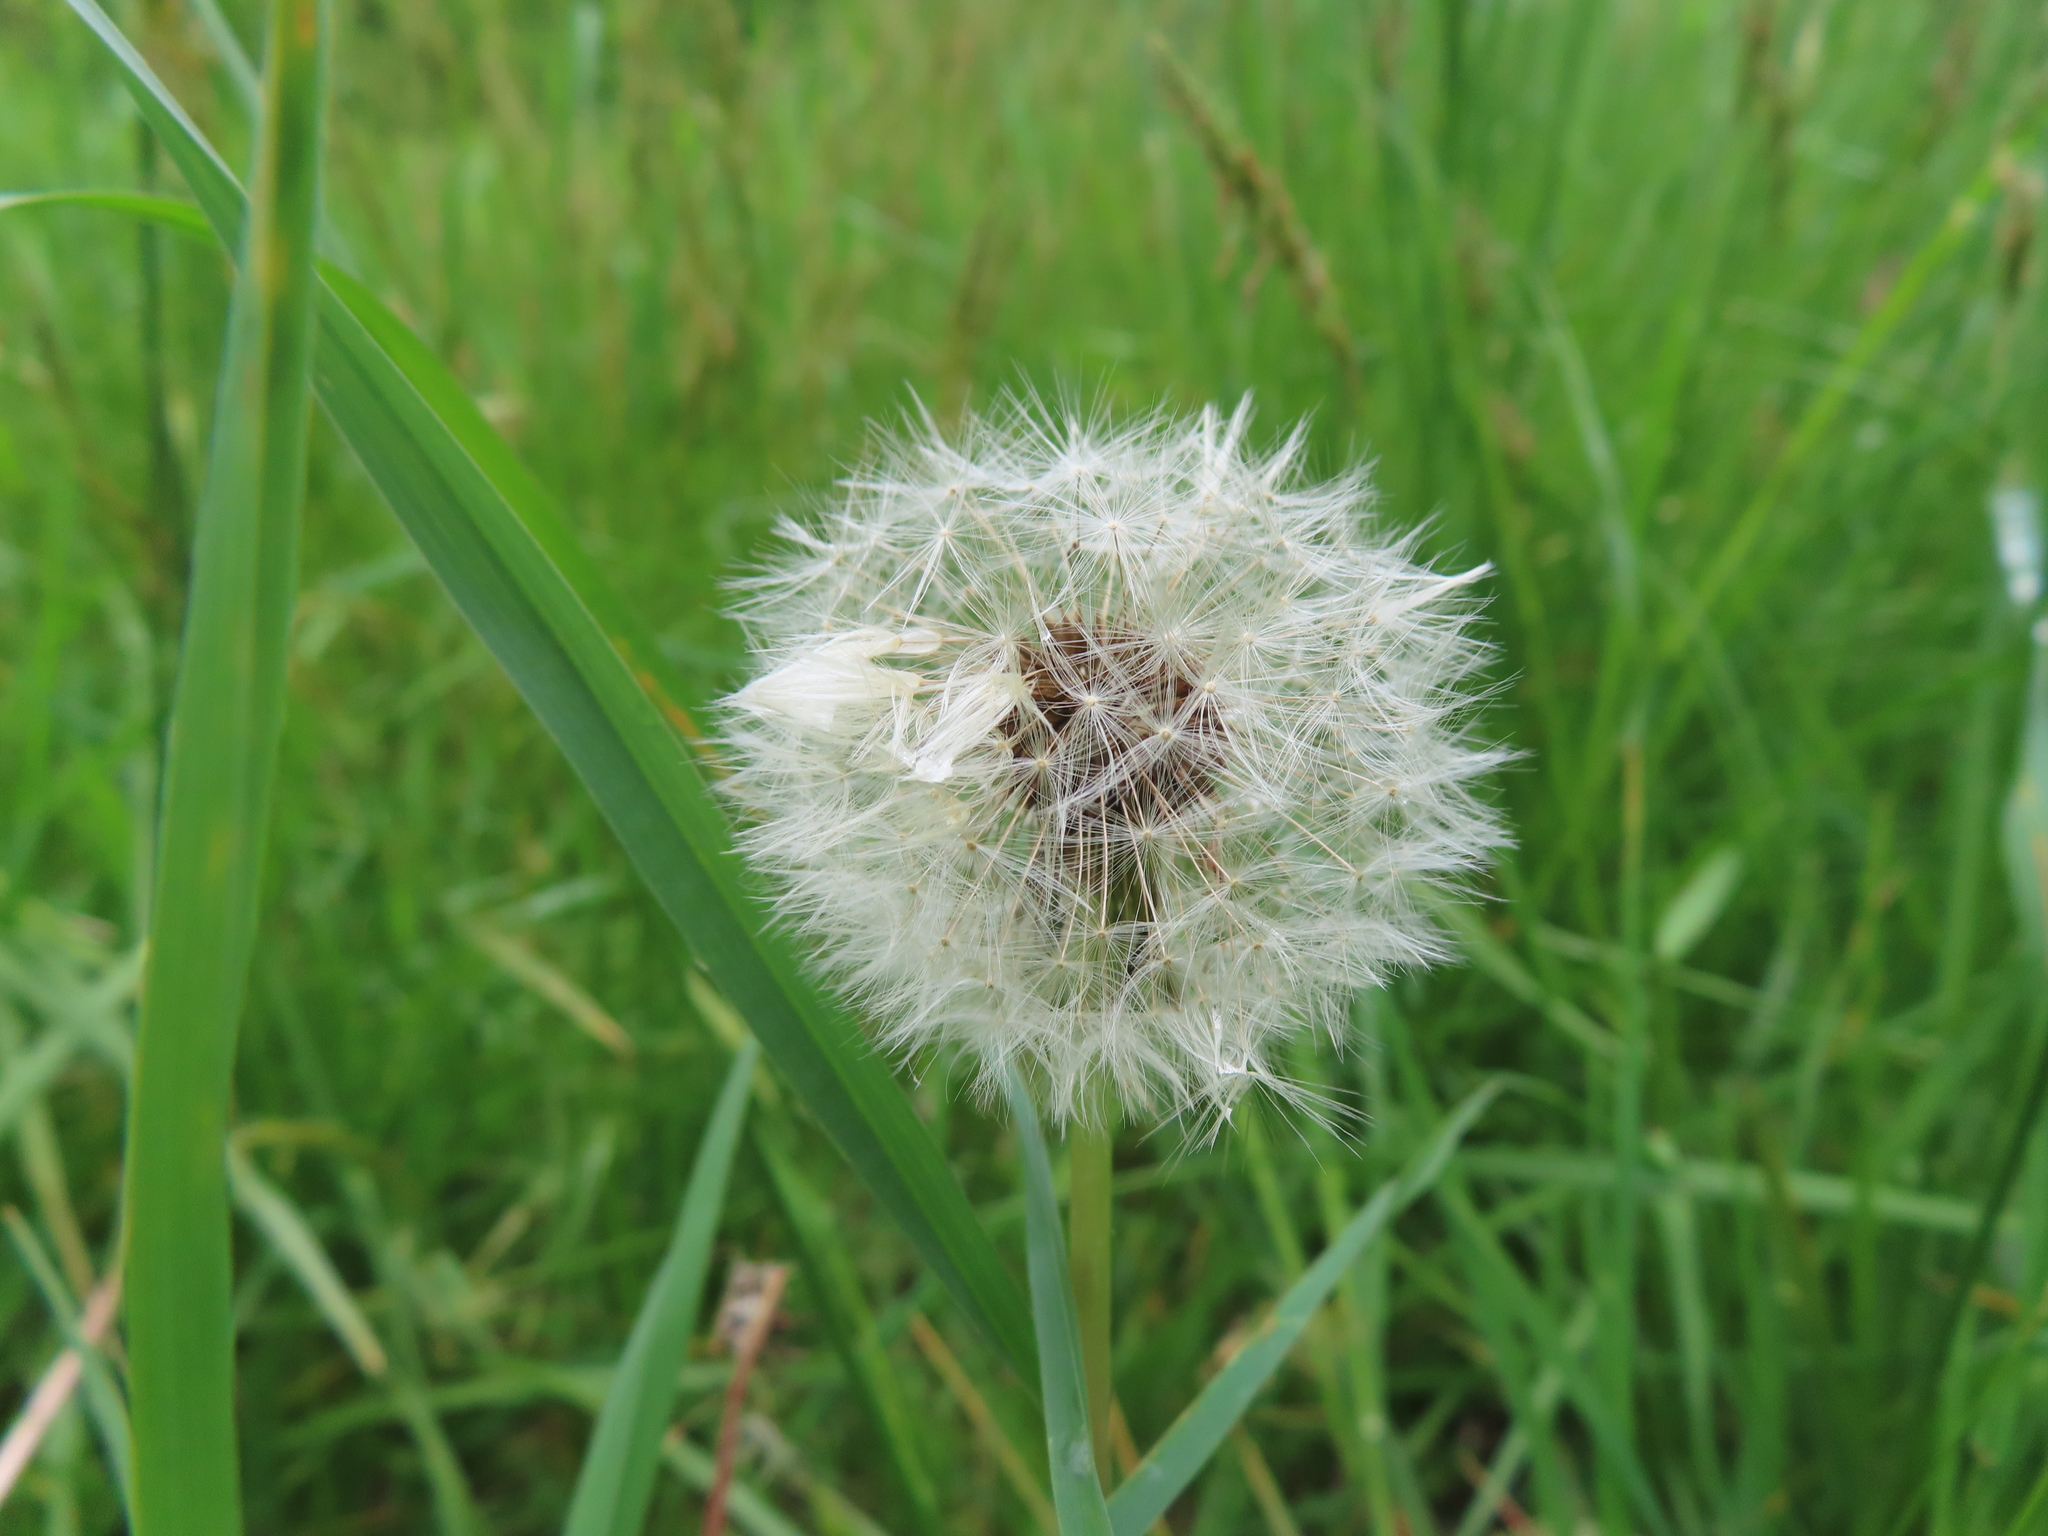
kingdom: Plantae
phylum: Tracheophyta
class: Magnoliopsida
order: Asterales
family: Asteraceae
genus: Taraxacum
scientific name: Taraxacum
